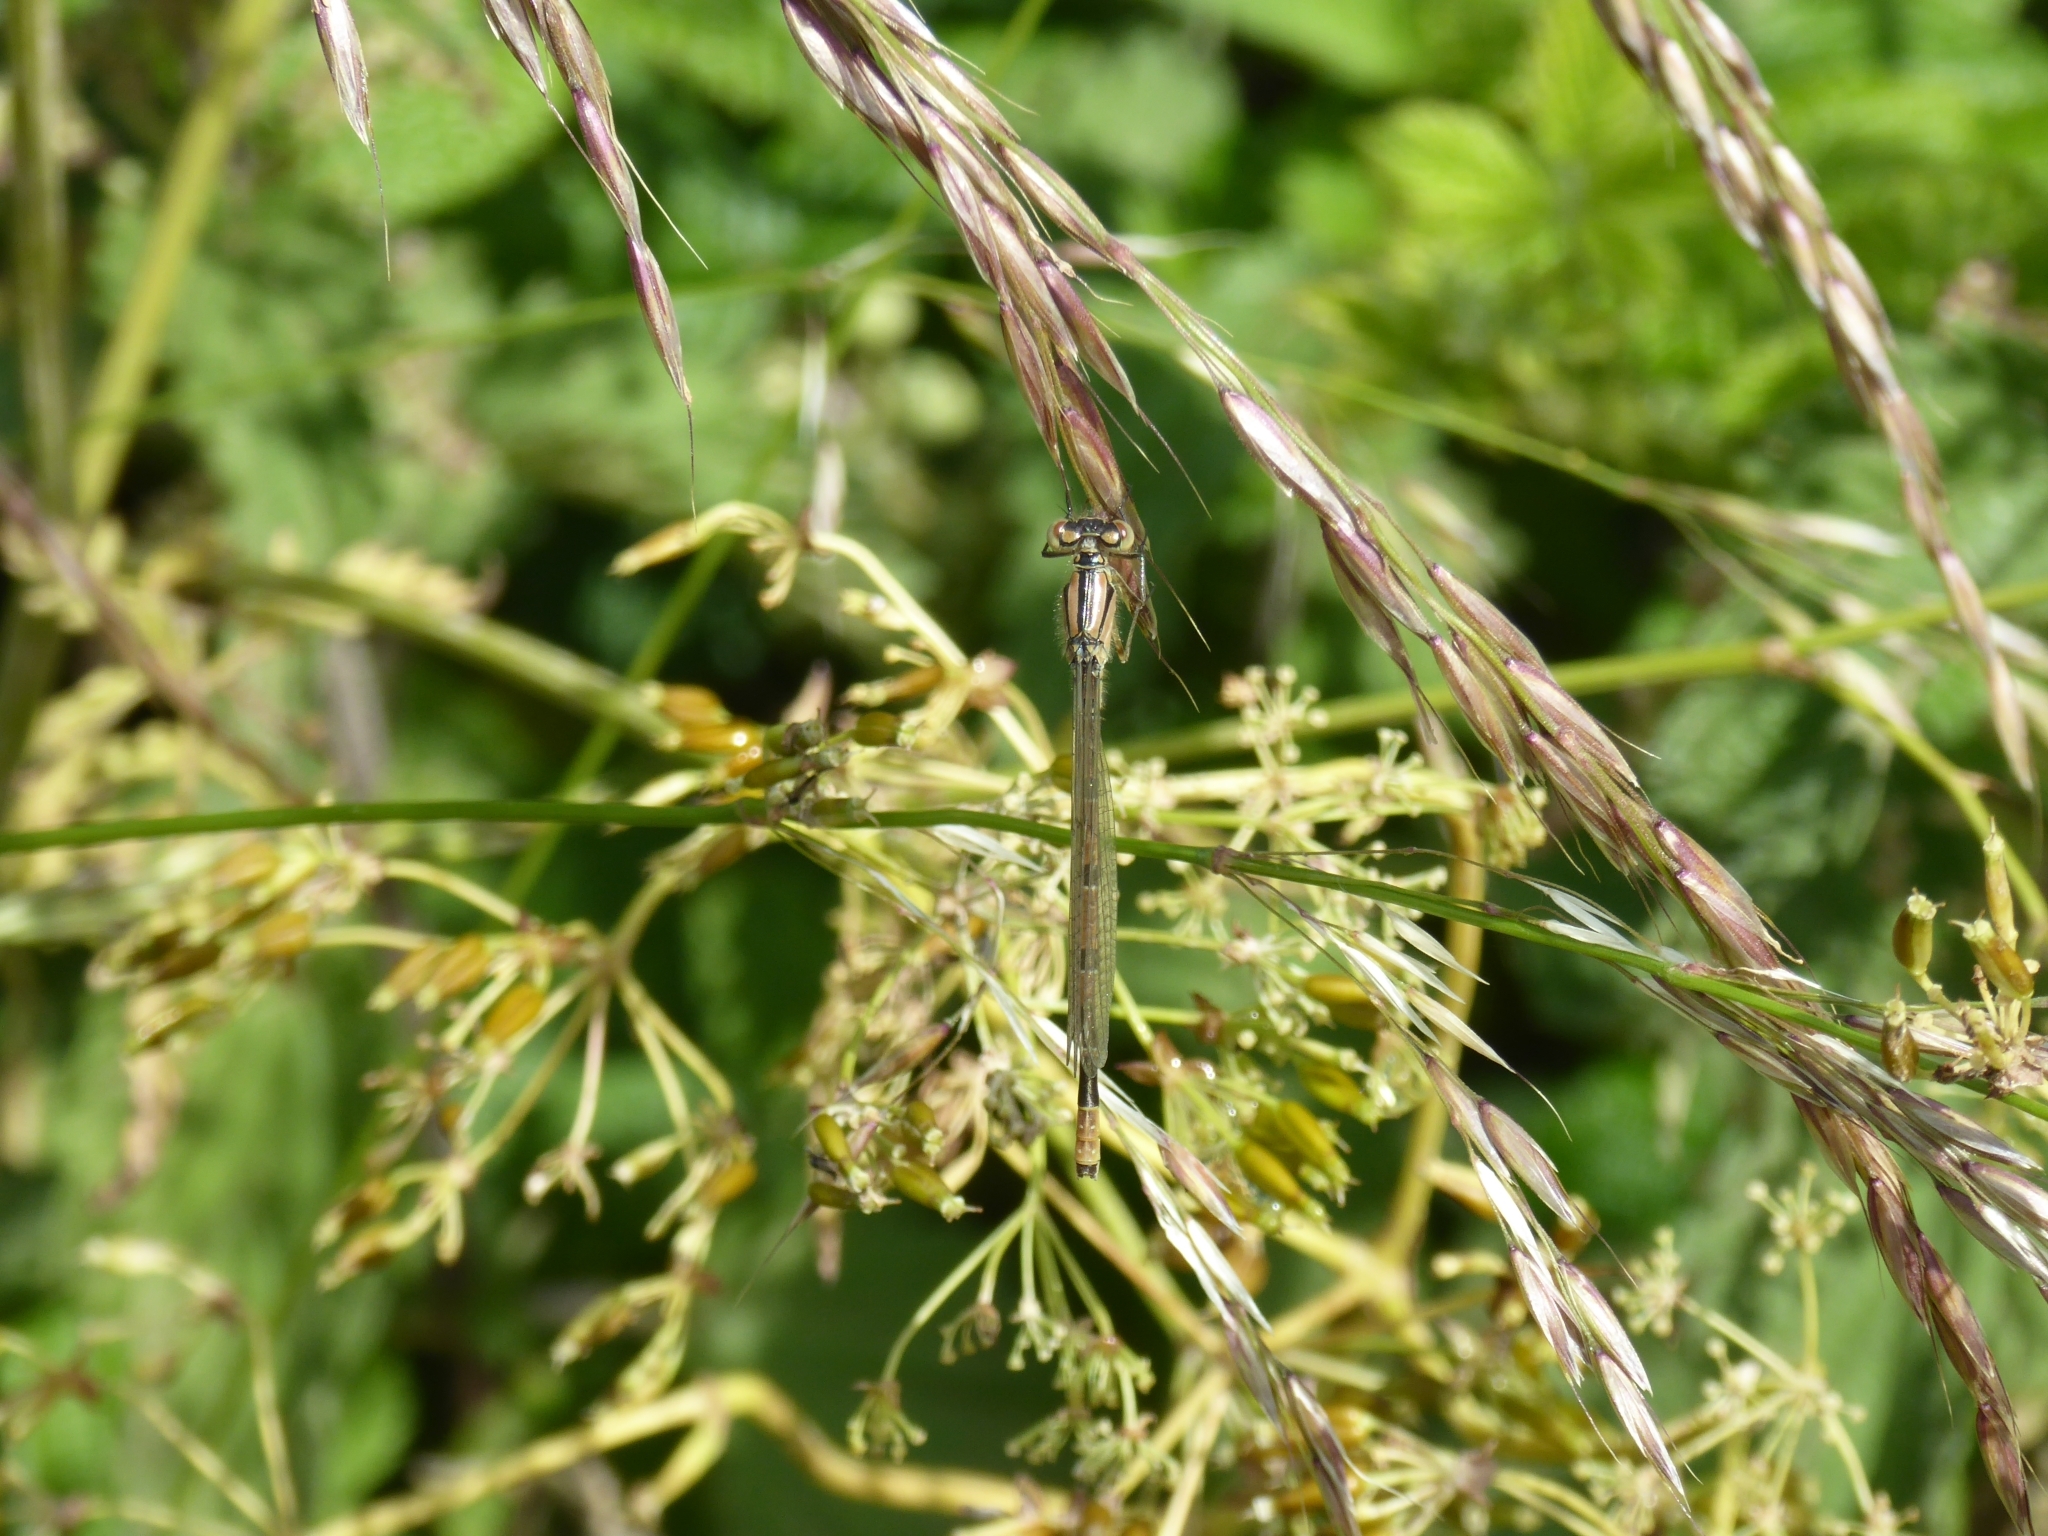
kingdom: Animalia
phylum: Arthropoda
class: Insecta
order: Odonata
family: Coenagrionidae
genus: Enallagma
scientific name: Enallagma cyathigerum
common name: Common blue damselfly
